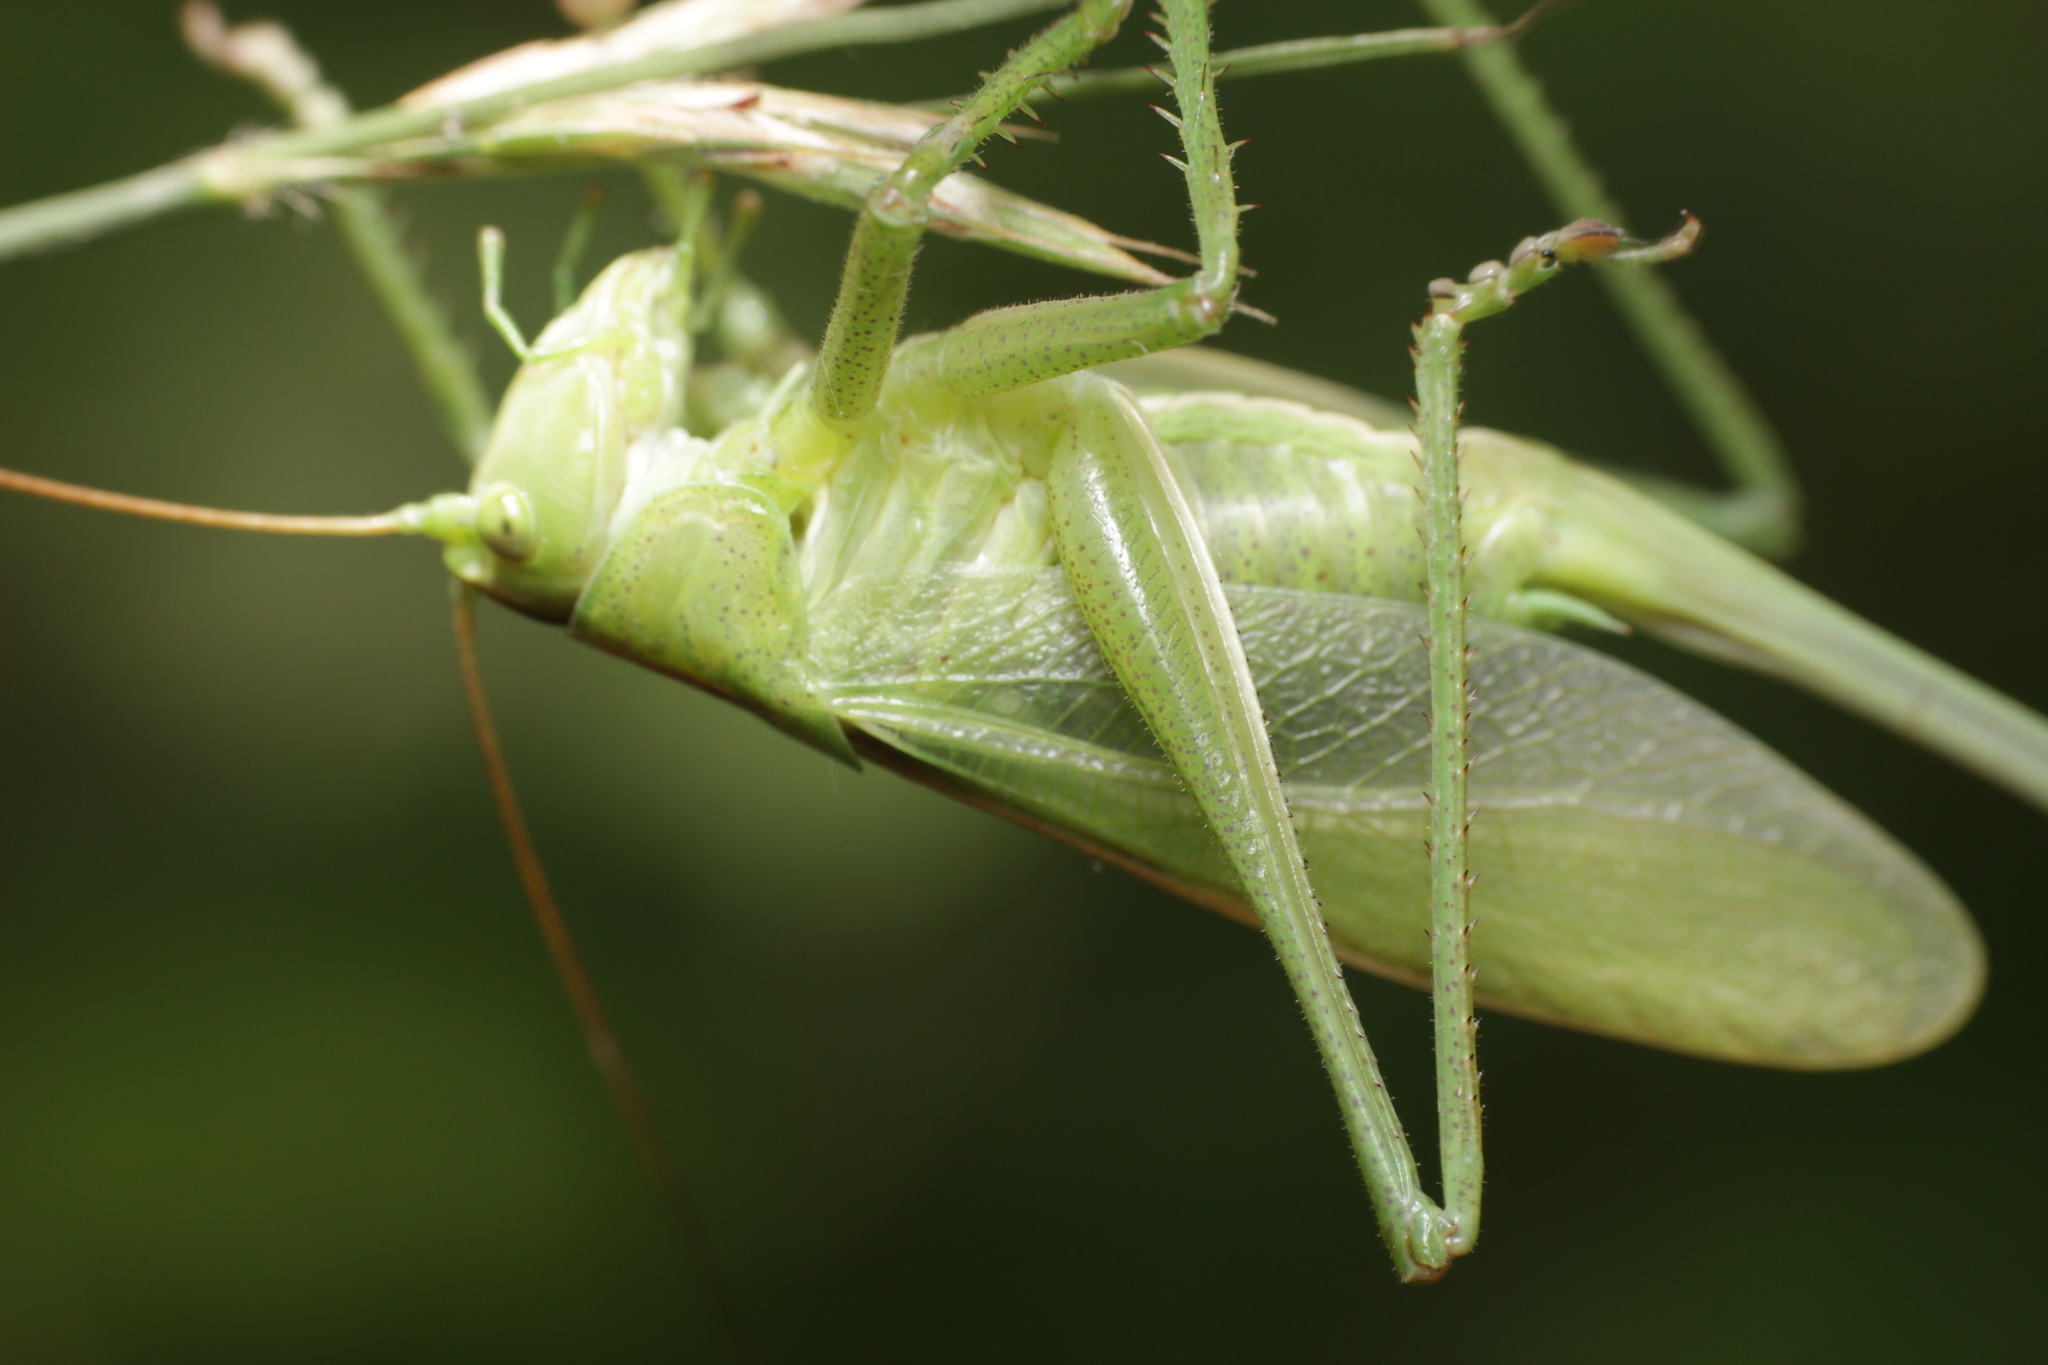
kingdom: Animalia
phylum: Arthropoda
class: Insecta
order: Orthoptera
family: Tettigoniidae
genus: Tettigonia
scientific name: Tettigonia cantans
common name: Upland green bush-cricket
